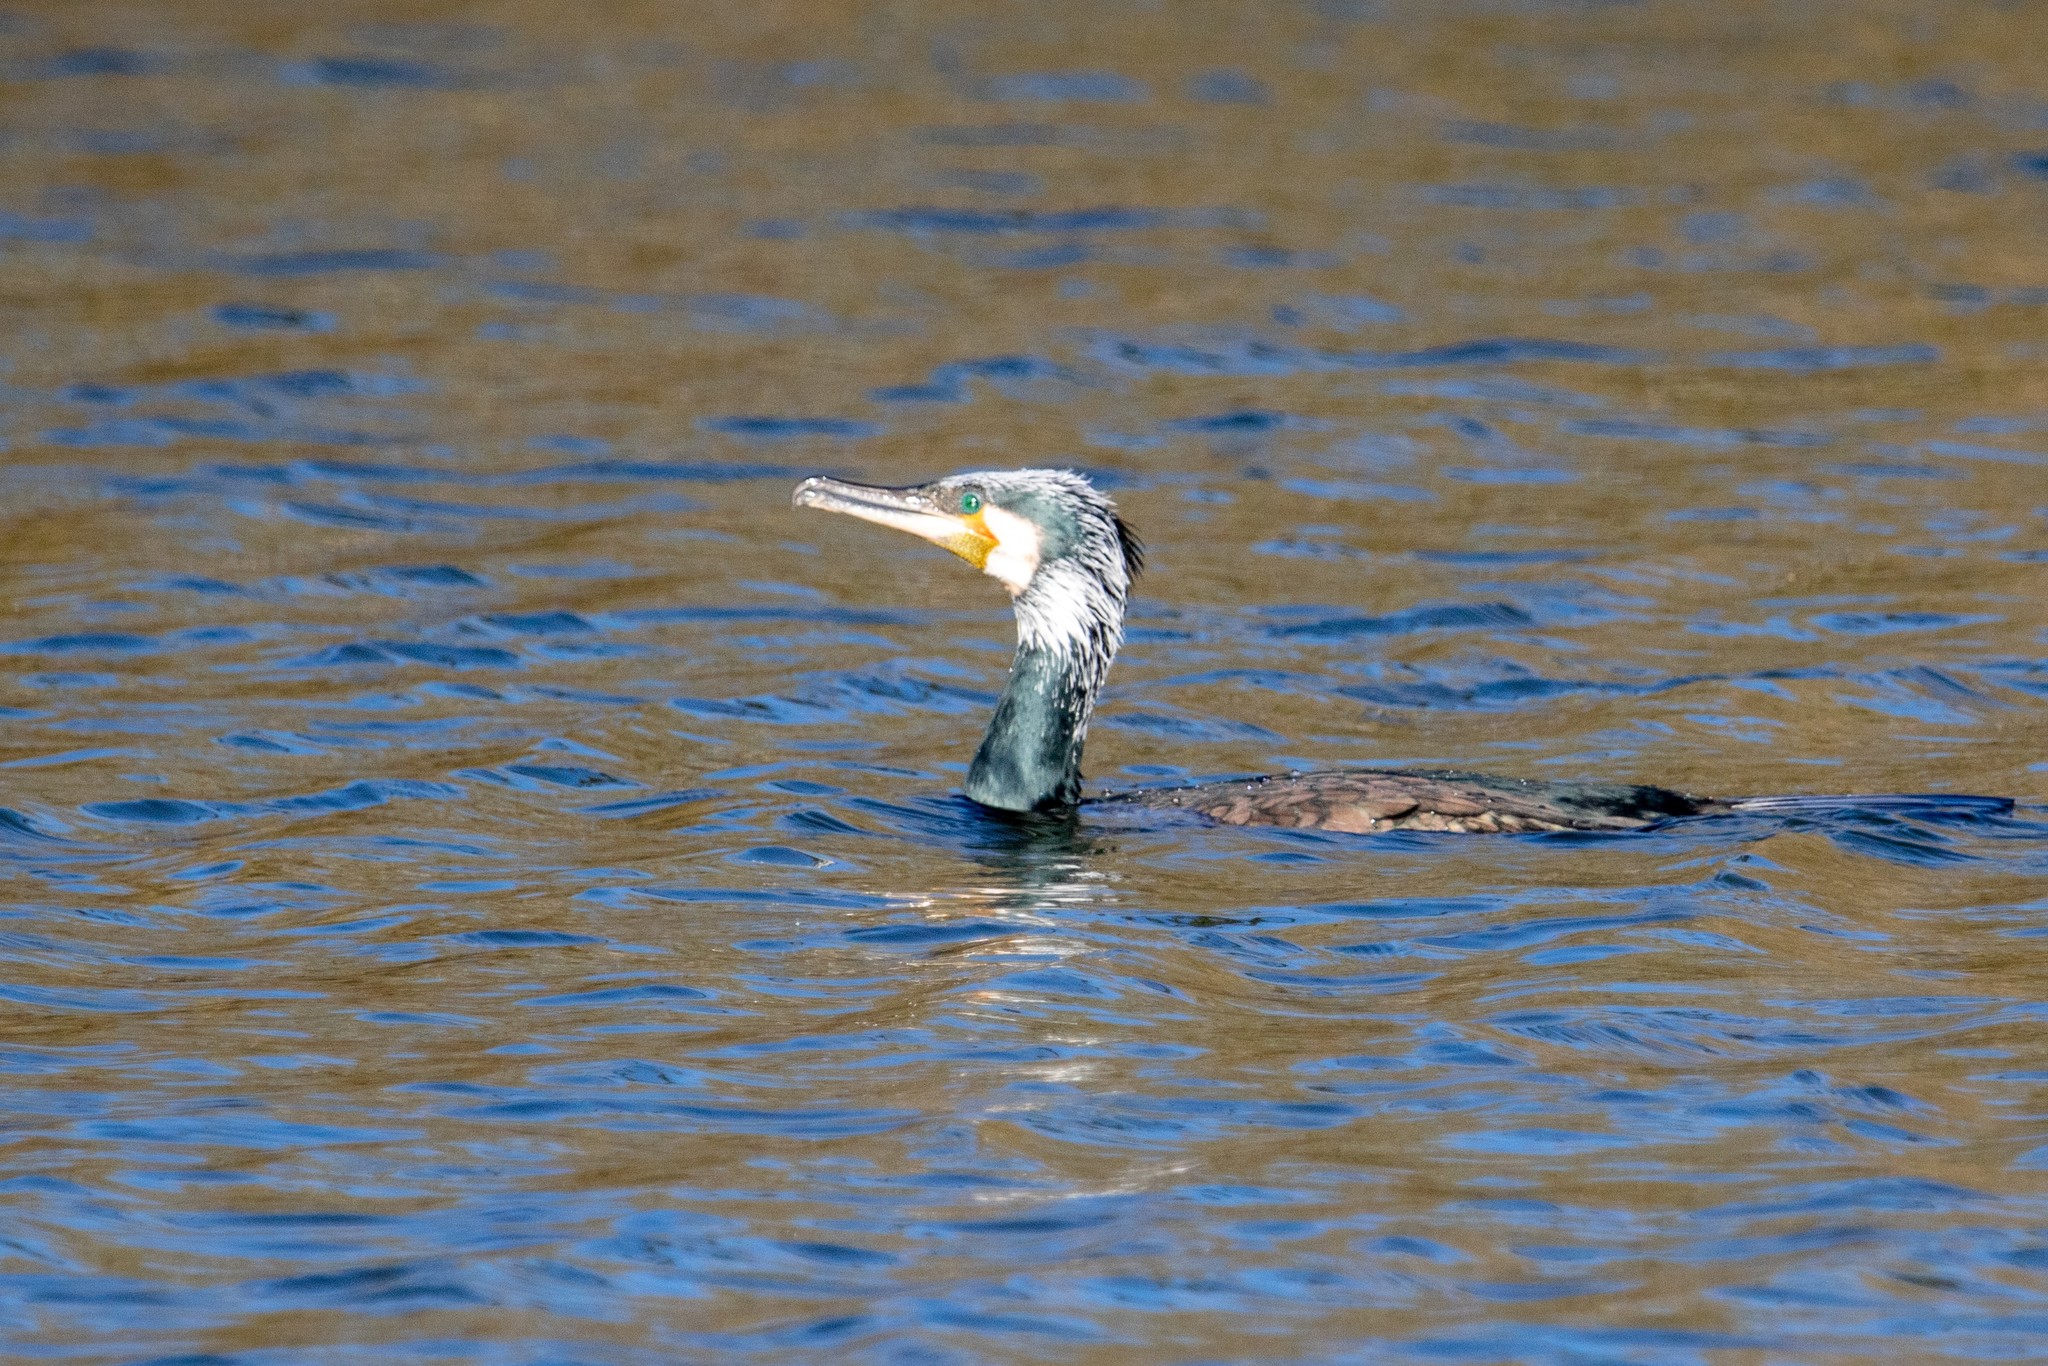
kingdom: Animalia
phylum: Chordata
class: Aves
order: Suliformes
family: Phalacrocoracidae
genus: Phalacrocorax
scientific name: Phalacrocorax carbo
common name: Great cormorant
